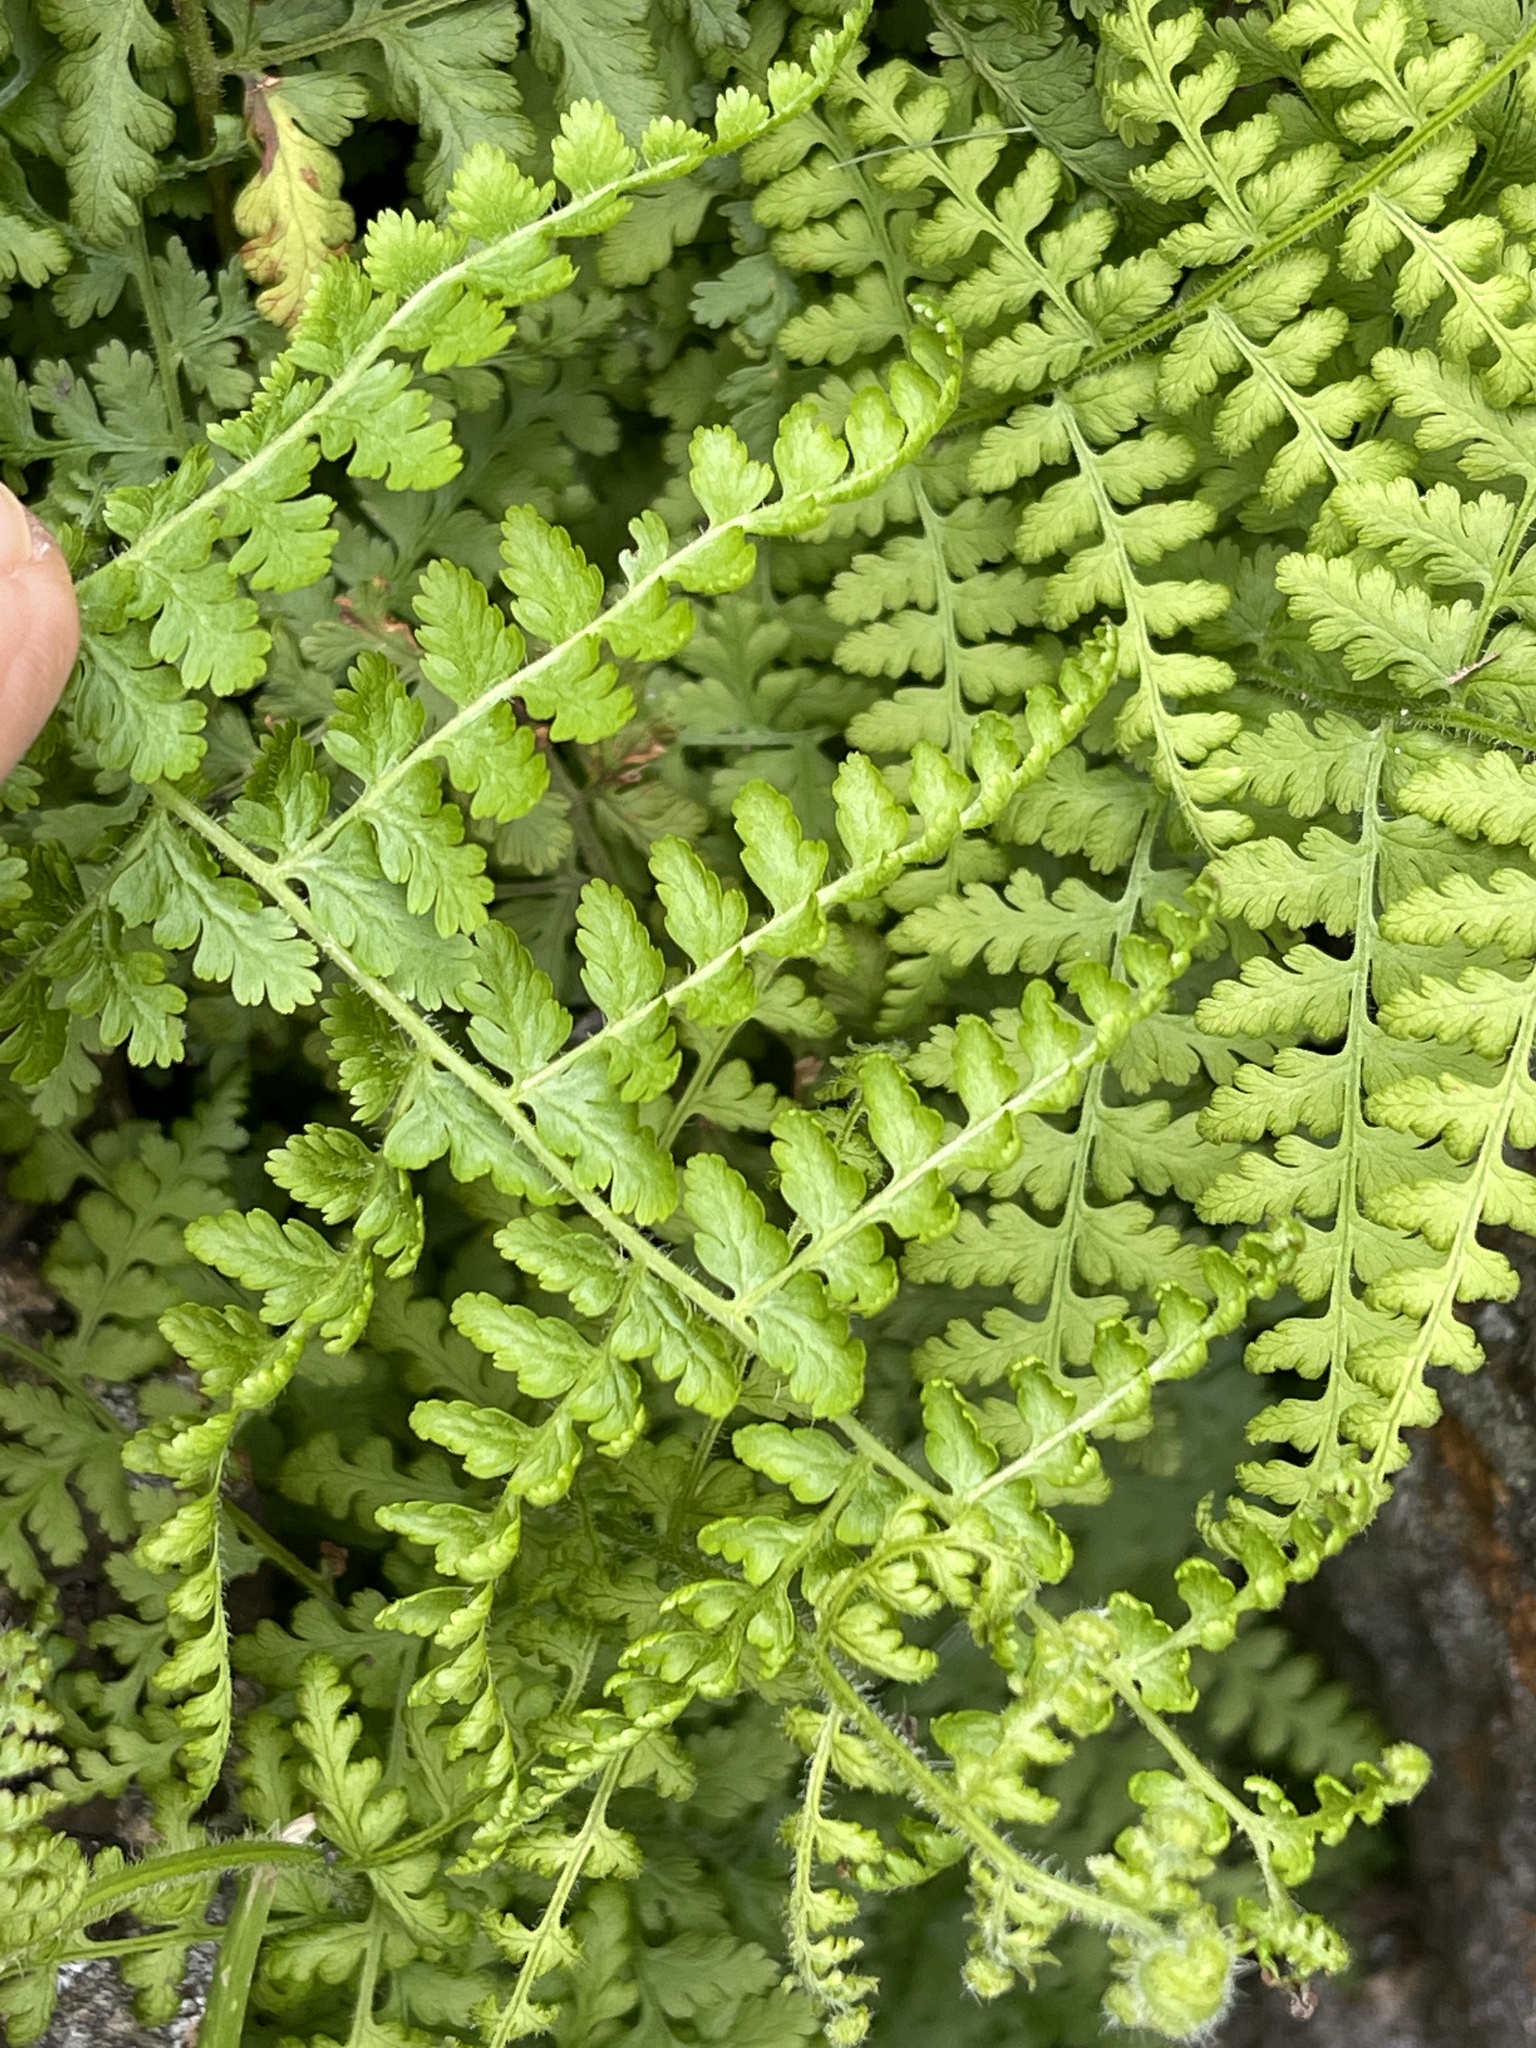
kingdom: Plantae
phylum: Tracheophyta
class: Polypodiopsida
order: Polypodiales
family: Dennstaedtiaceae
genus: Sitobolium
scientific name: Sitobolium punctilobum
